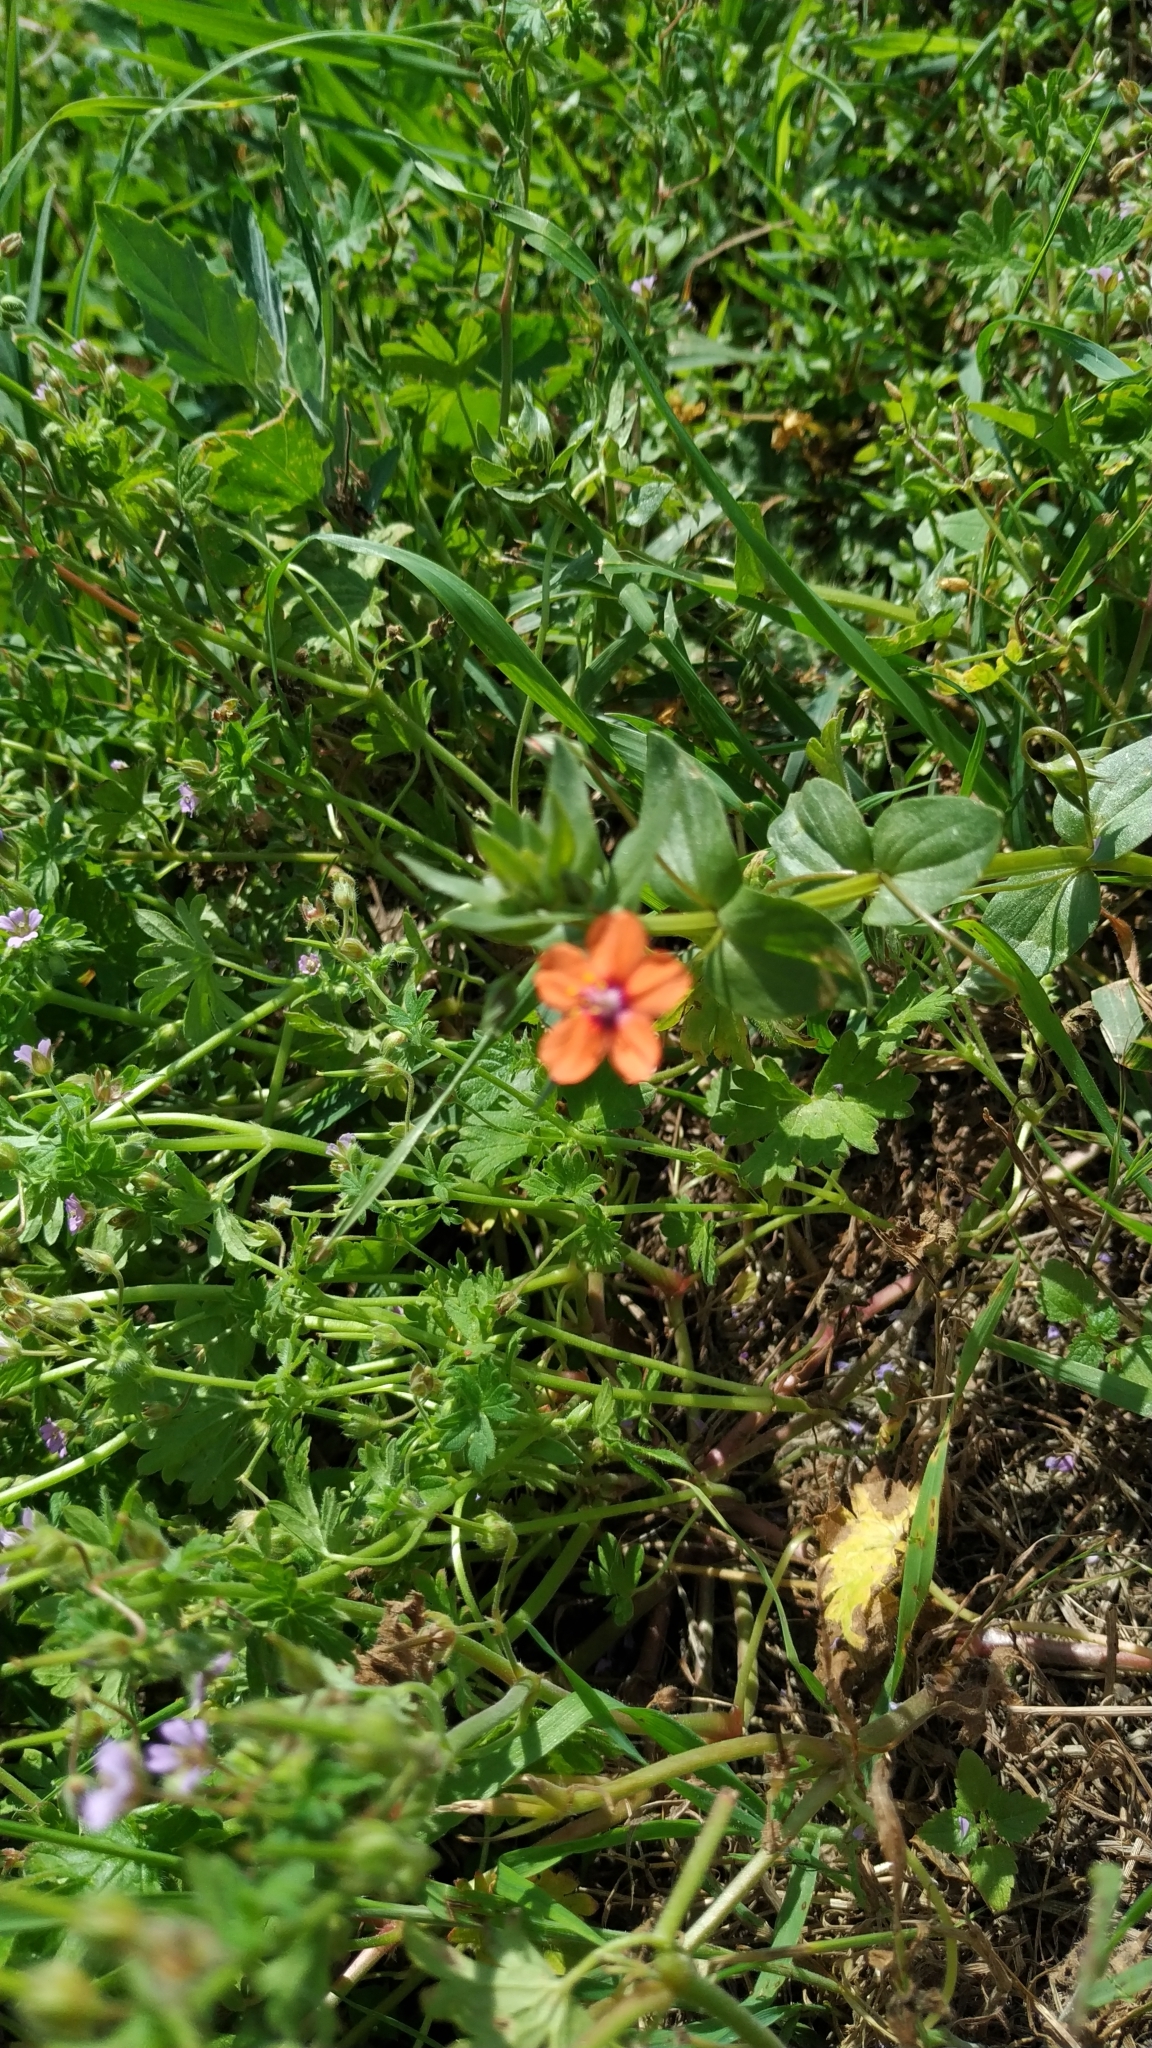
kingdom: Plantae
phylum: Tracheophyta
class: Magnoliopsida
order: Ericales
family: Primulaceae
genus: Lysimachia
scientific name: Lysimachia arvensis
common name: Scarlet pimpernel
